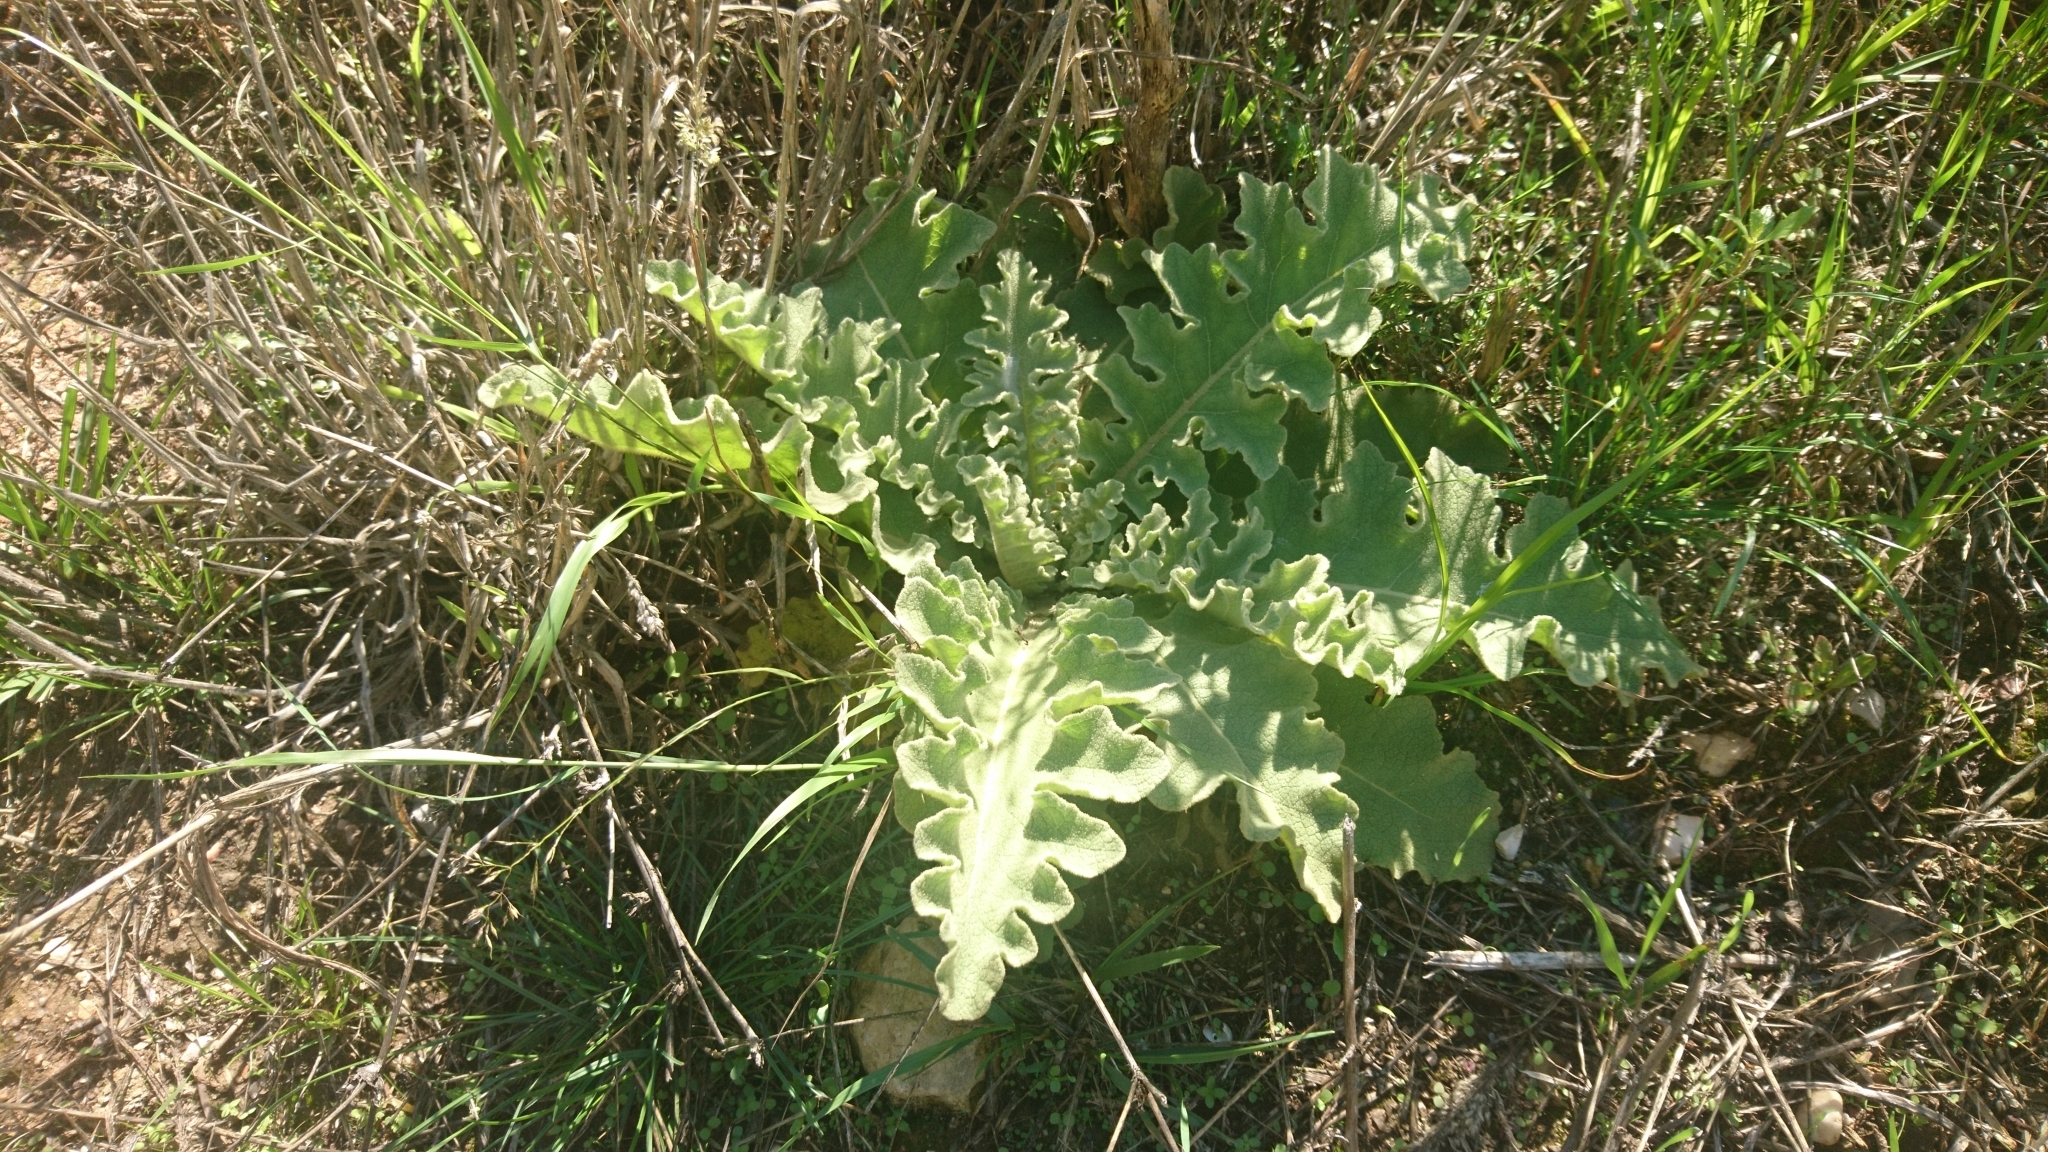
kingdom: Plantae
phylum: Tracheophyta
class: Magnoliopsida
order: Lamiales
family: Scrophulariaceae
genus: Verbascum
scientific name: Verbascum sinuatum
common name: Wavyleaf mullein
